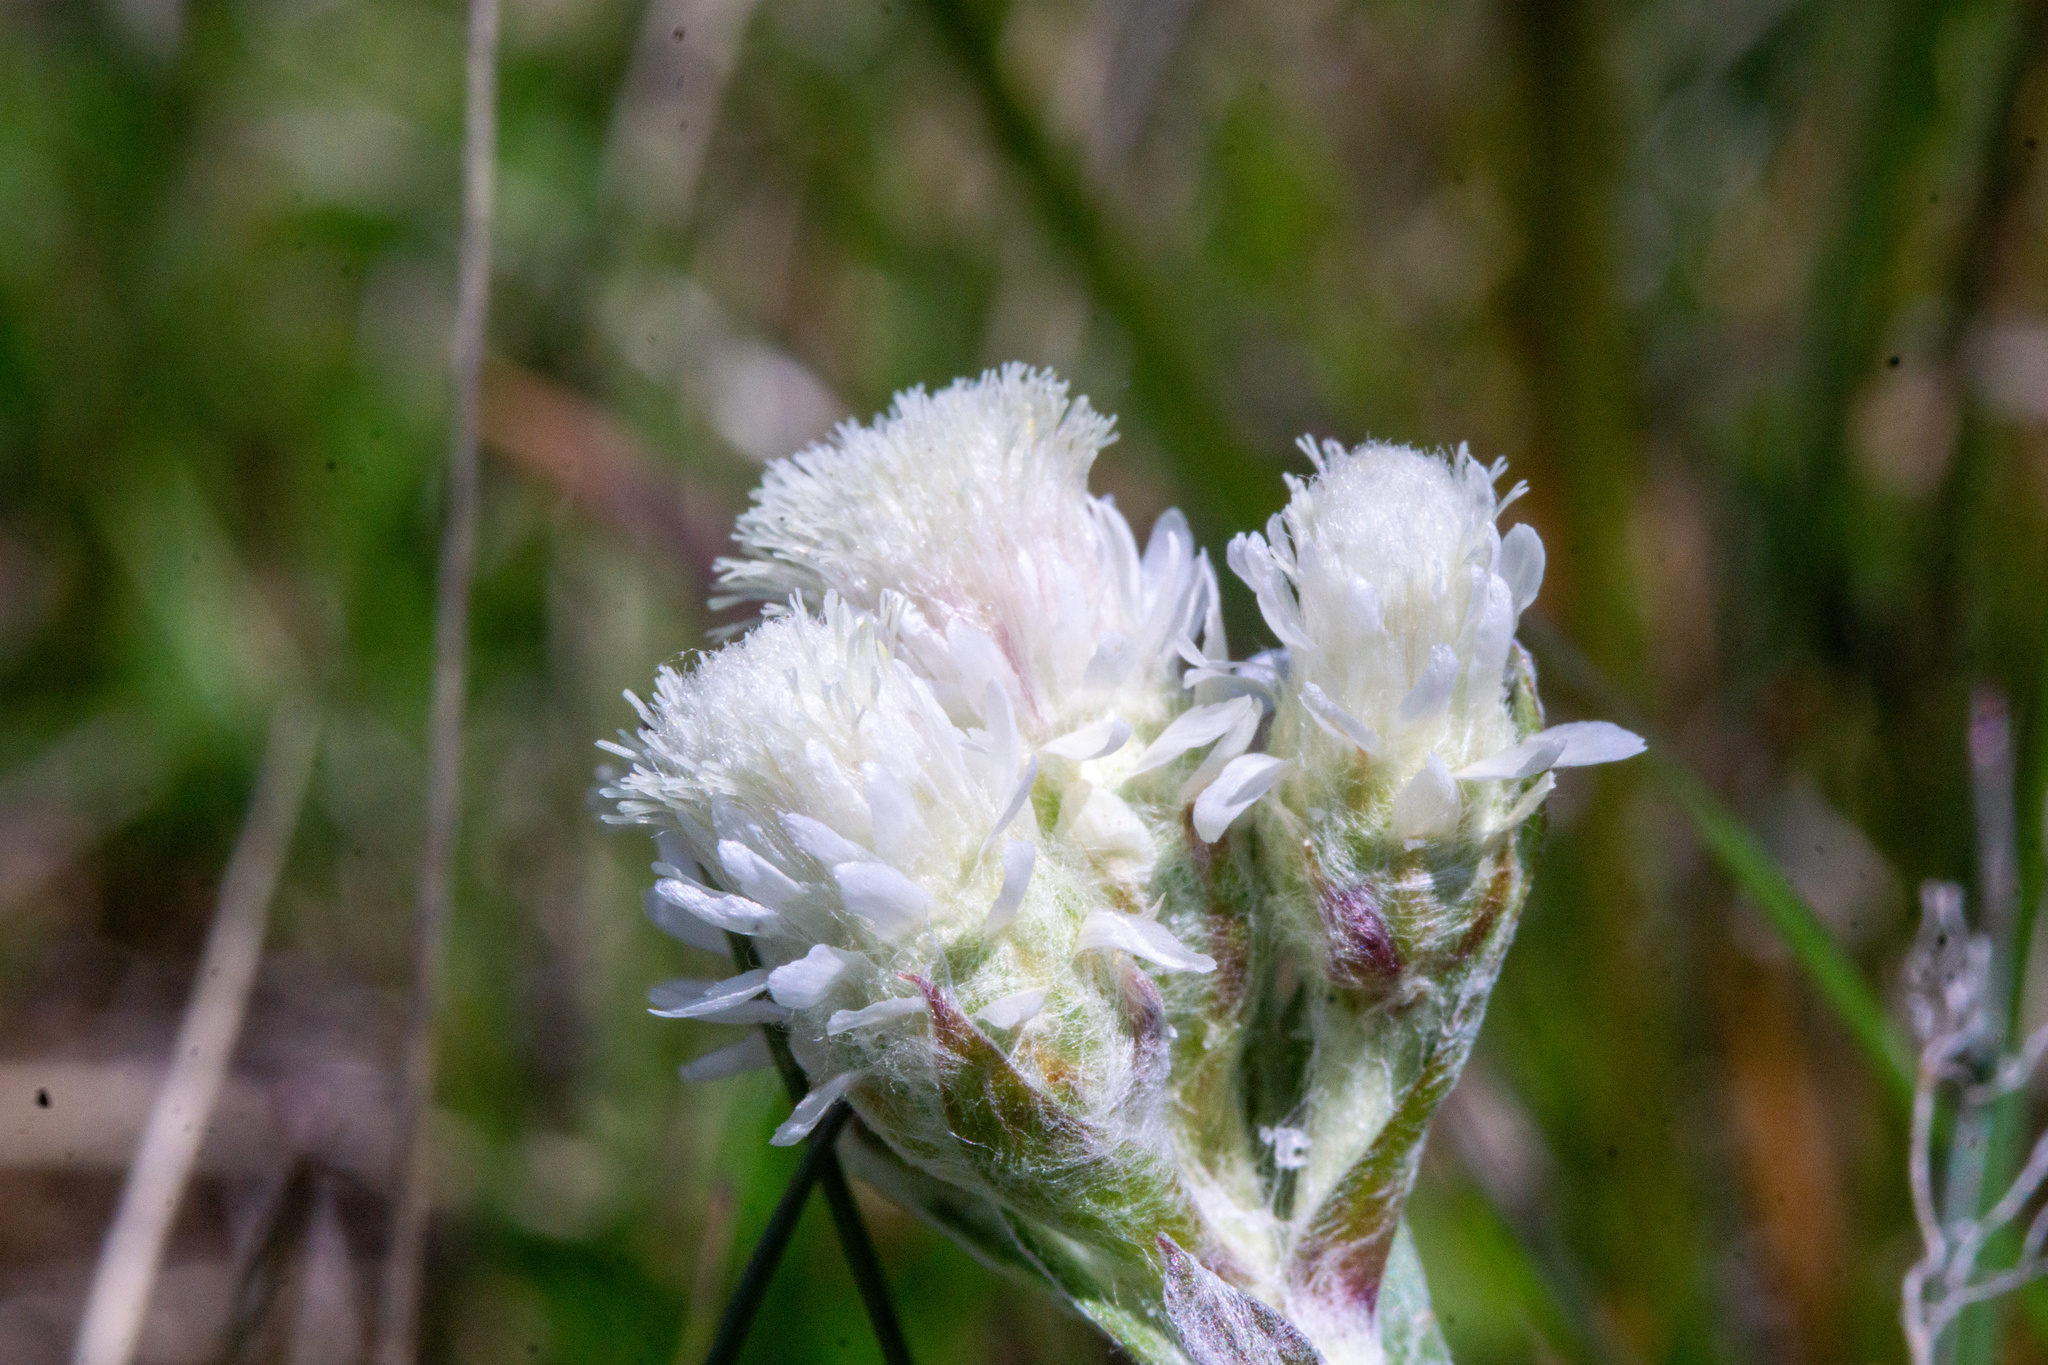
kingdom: Plantae
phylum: Tracheophyta
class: Magnoliopsida
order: Asterales
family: Asteraceae
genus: Antennaria
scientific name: Antennaria dioica
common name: Mountain everlasting
